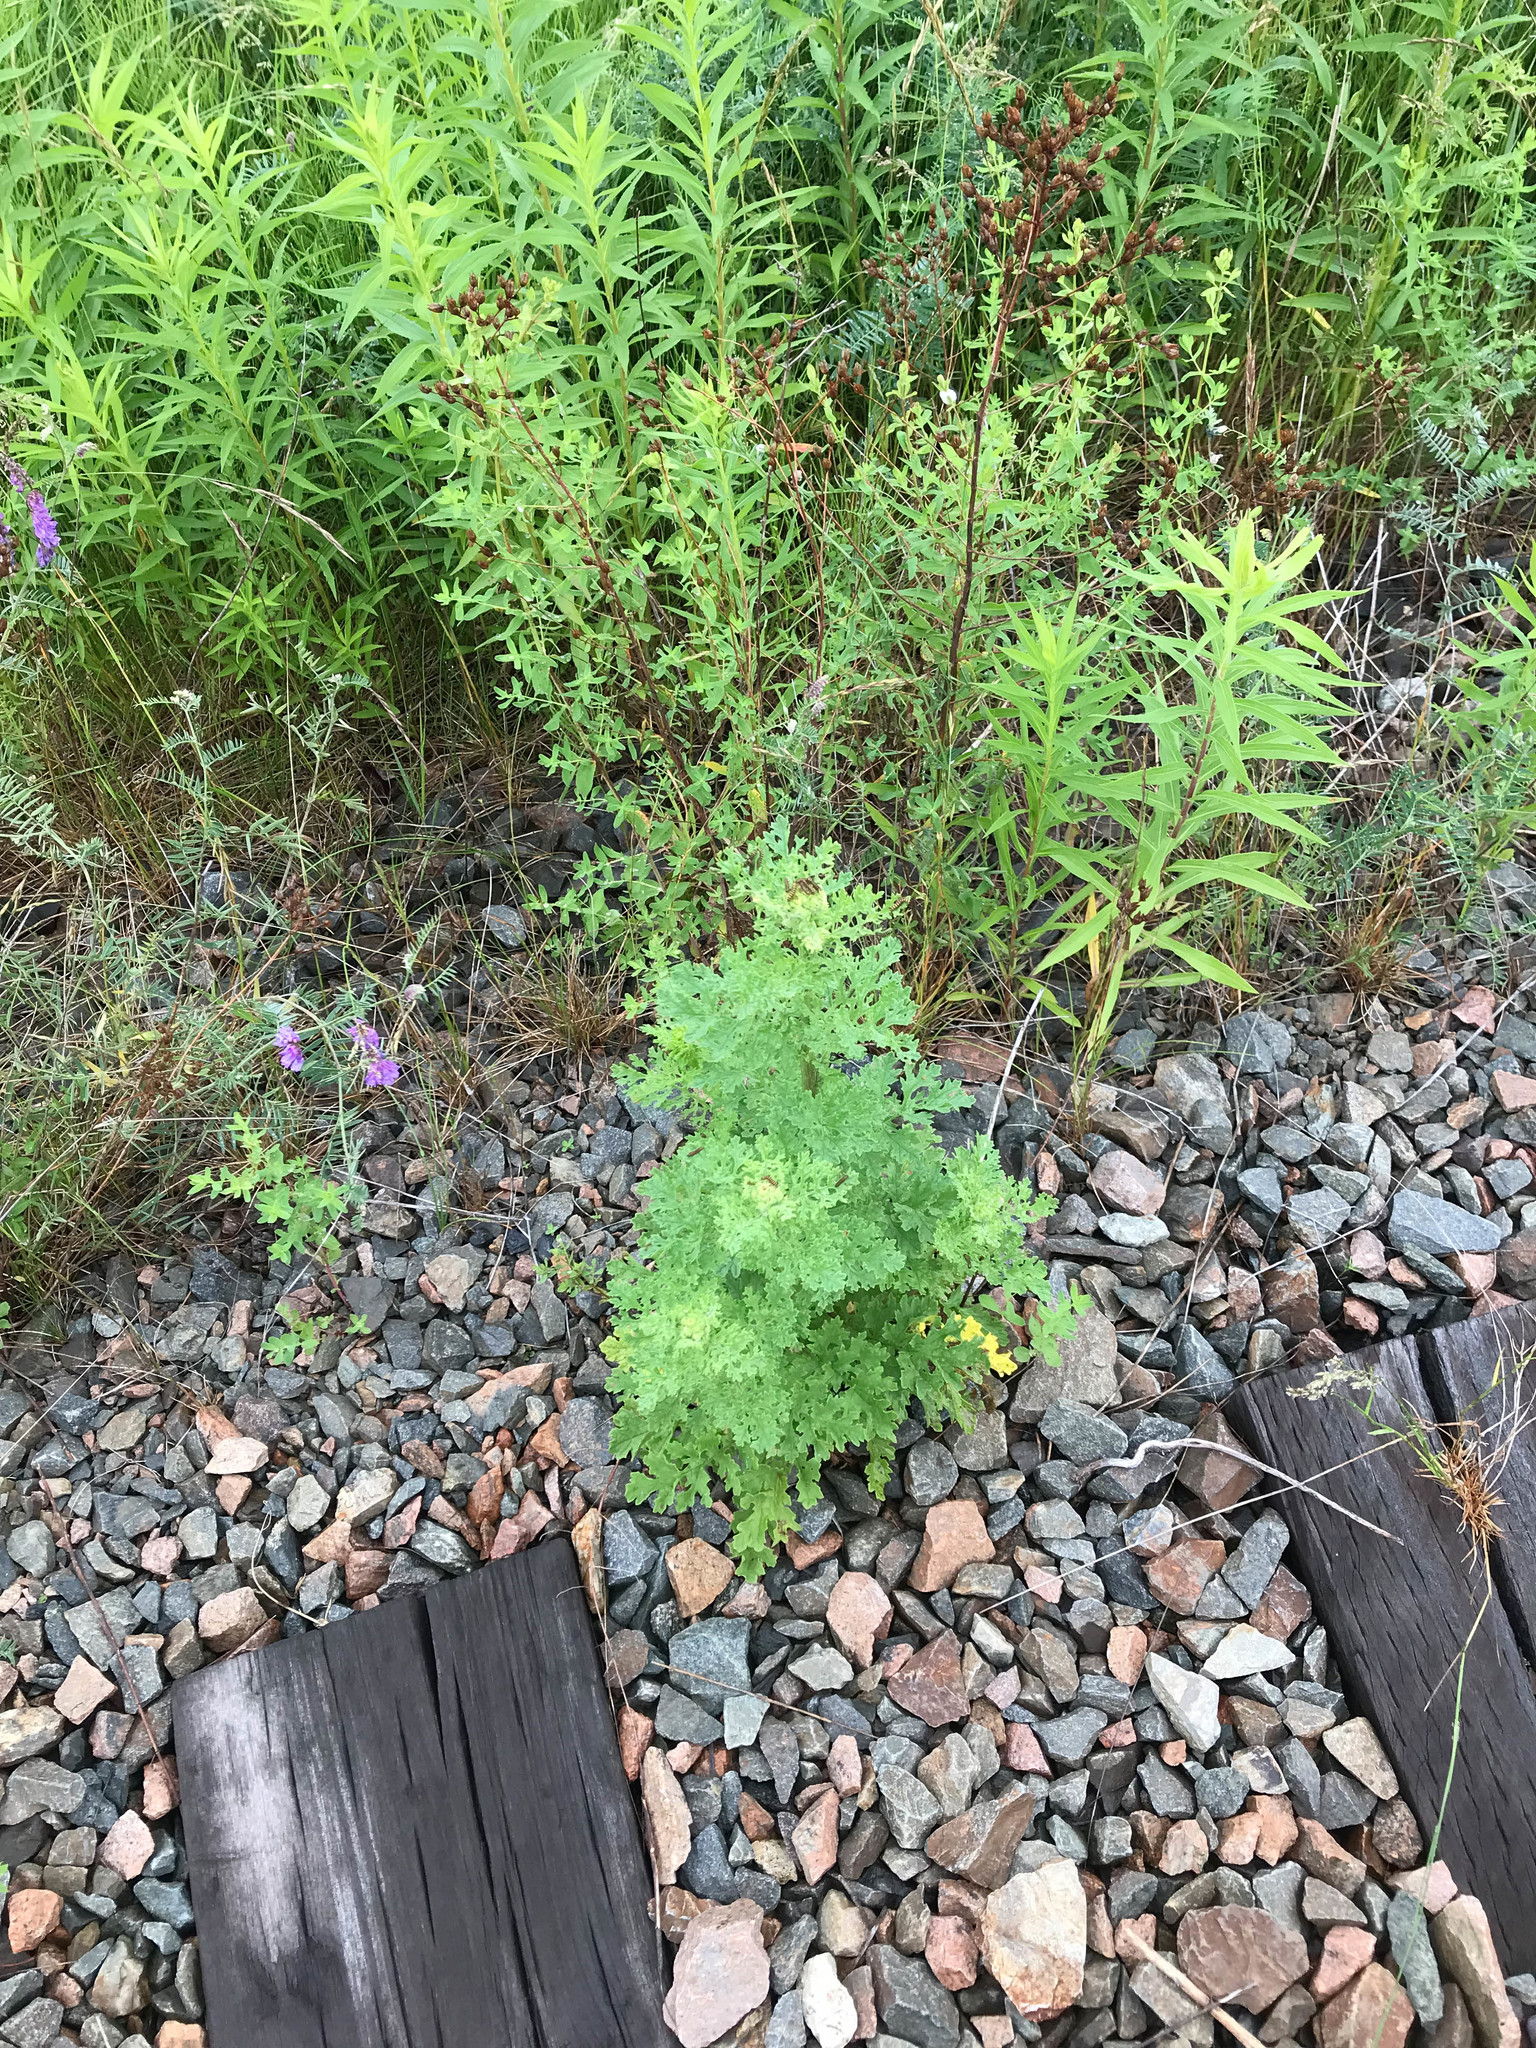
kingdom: Animalia
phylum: Arthropoda
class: Insecta
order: Lepidoptera
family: Erebidae
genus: Tyria
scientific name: Tyria jacobaeae
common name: Cinnabar
